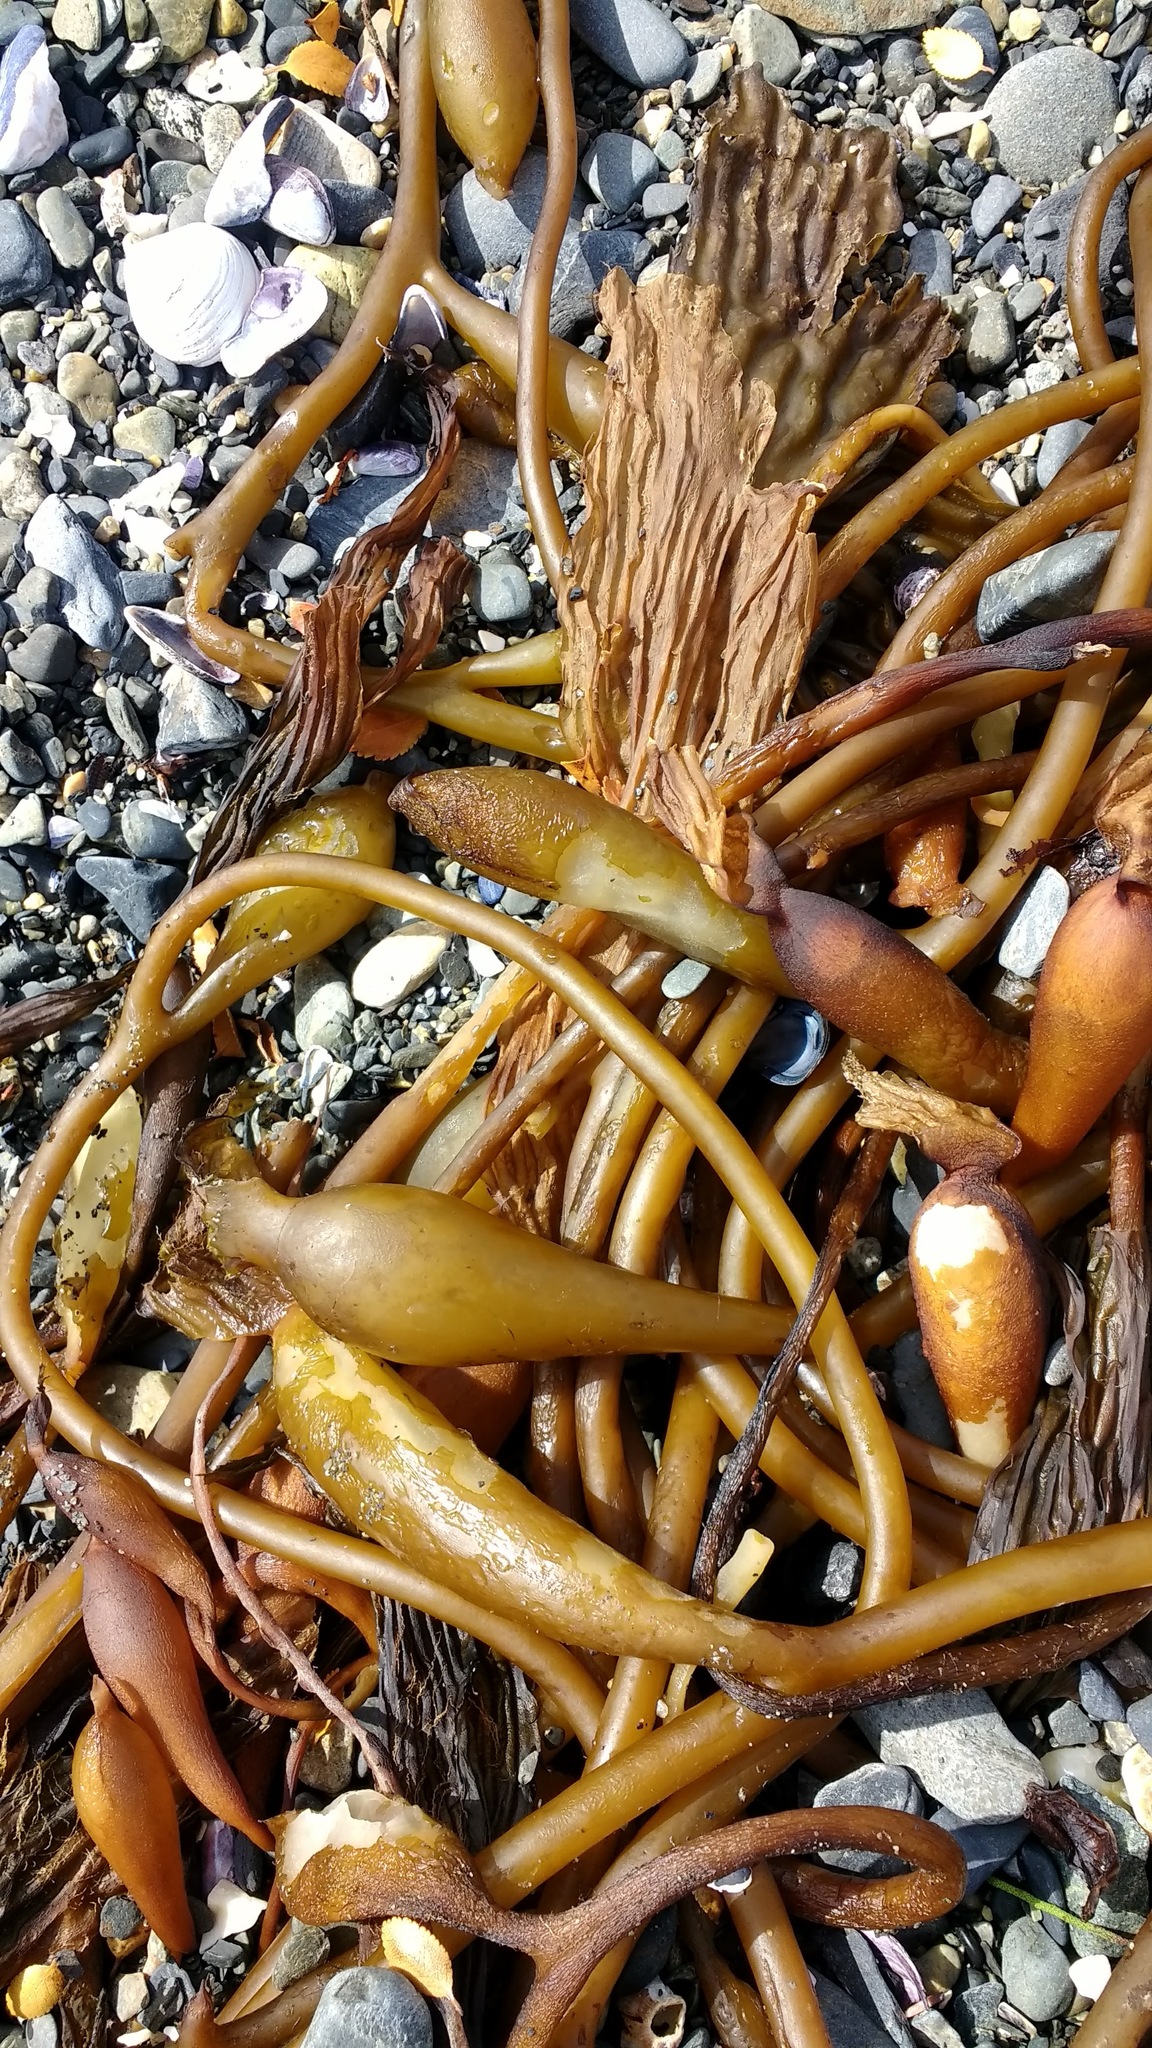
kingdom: Chromista
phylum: Ochrophyta
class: Phaeophyceae
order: Laminariales
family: Laminariaceae
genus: Macrocystis
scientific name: Macrocystis pyrifera
